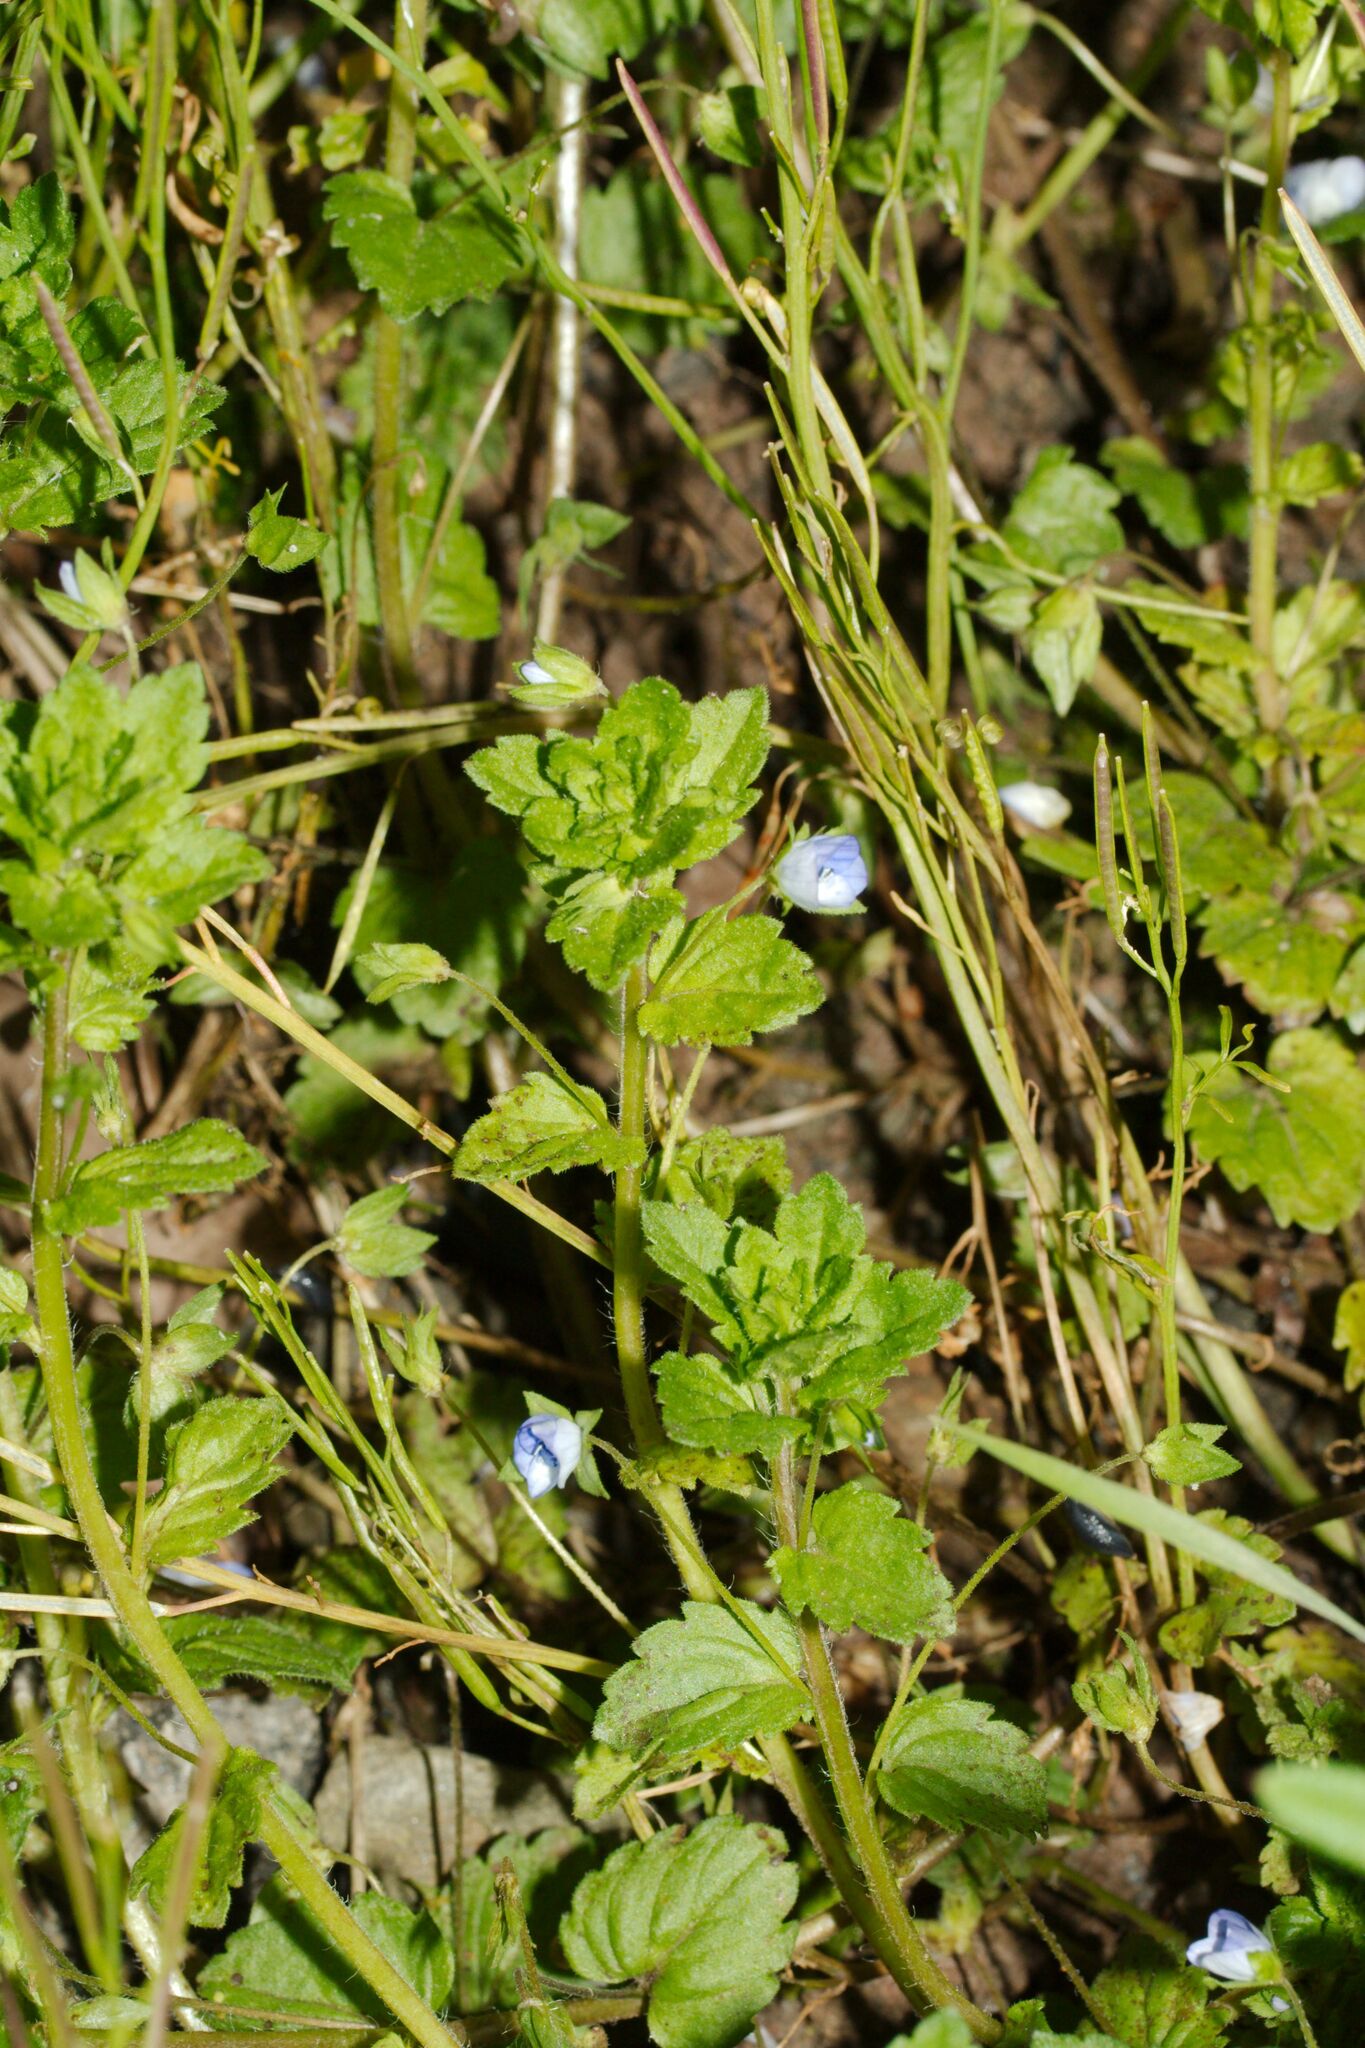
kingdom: Plantae
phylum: Tracheophyta
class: Magnoliopsida
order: Lamiales
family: Plantaginaceae
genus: Veronica
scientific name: Veronica persica
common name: Common field-speedwell
